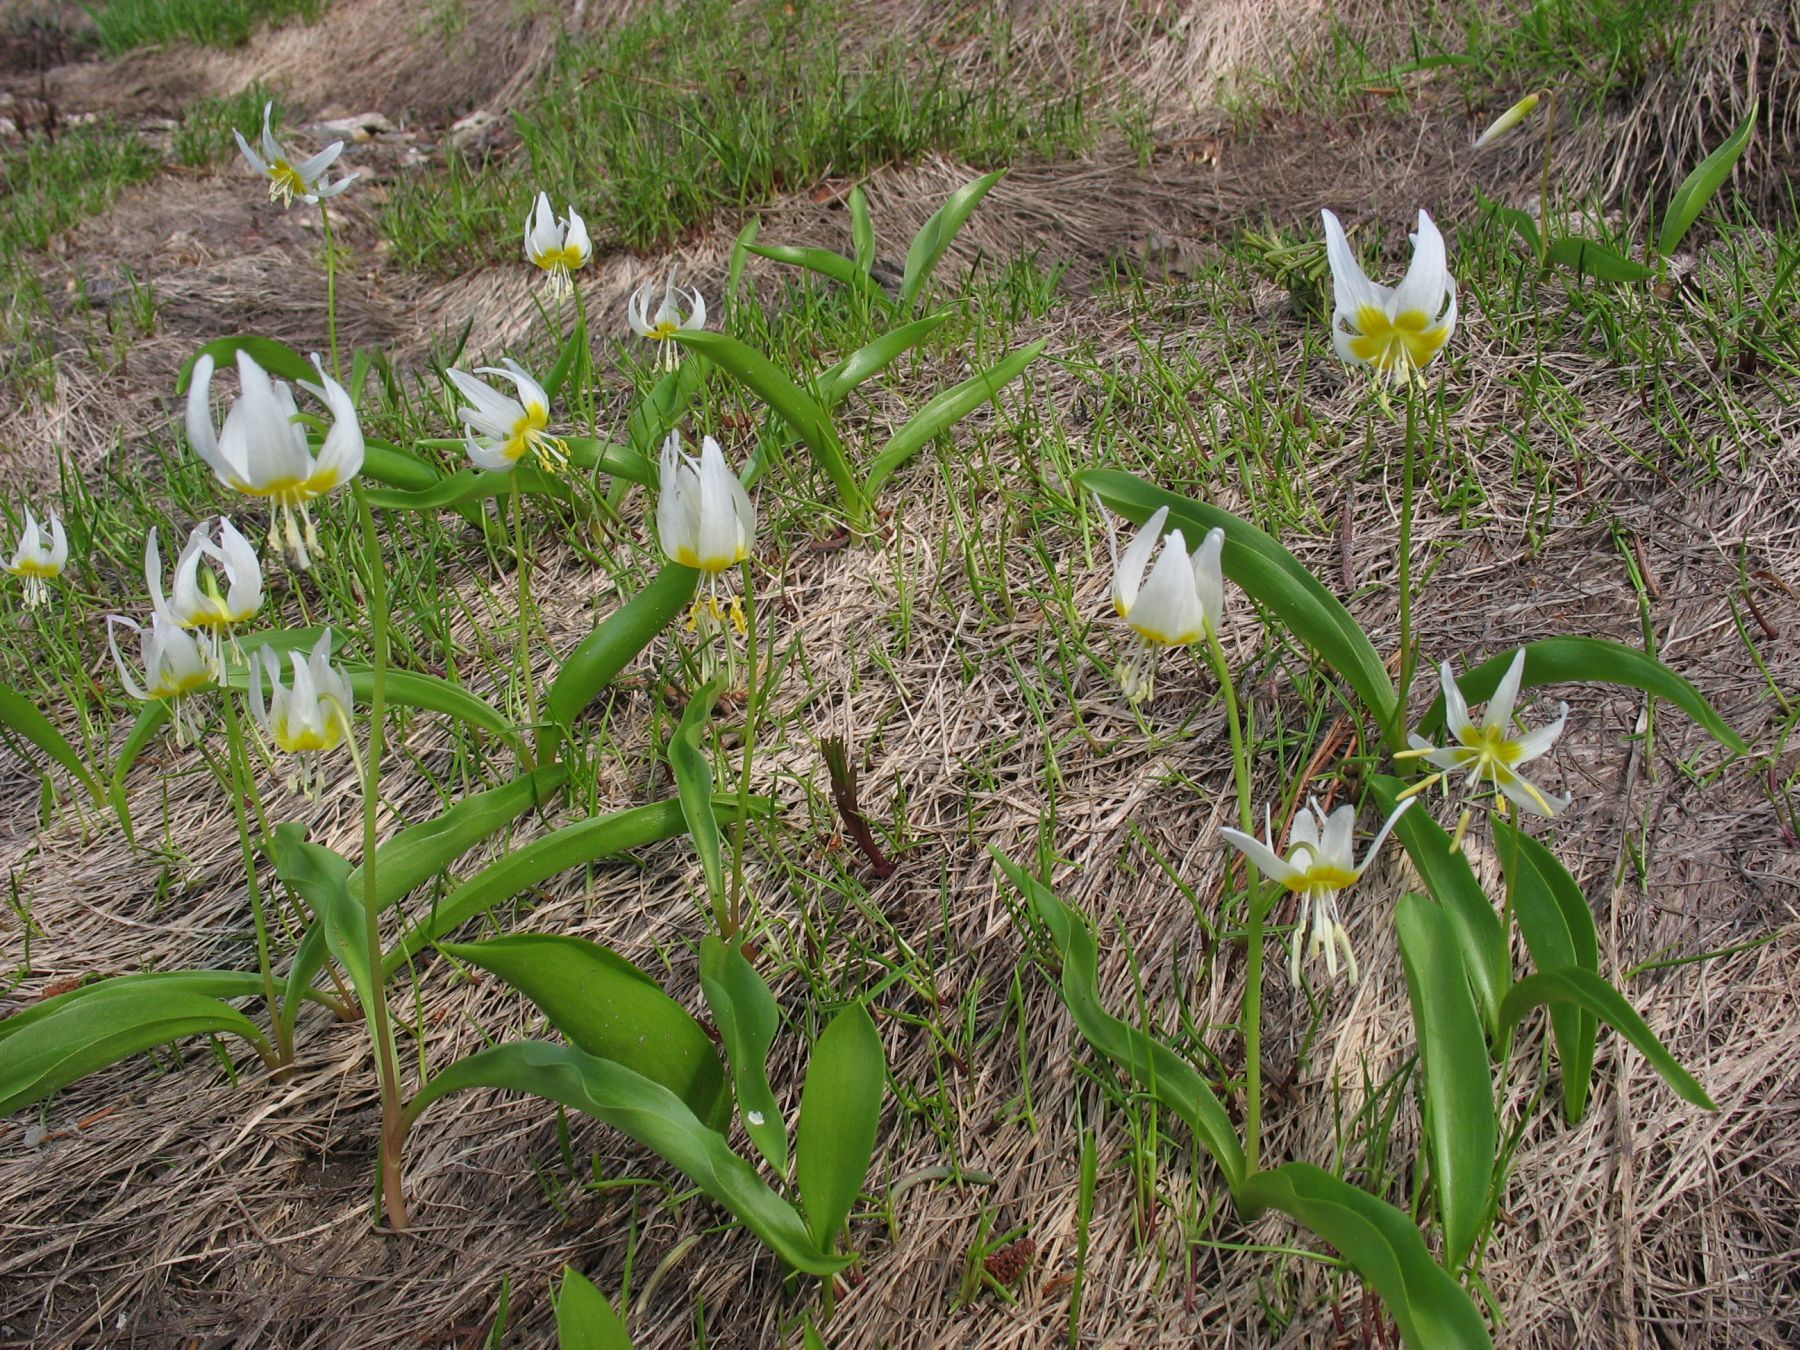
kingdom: Plantae
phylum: Tracheophyta
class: Liliopsida
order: Liliales
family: Liliaceae
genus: Erythronium
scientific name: Erythronium klamathense
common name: Klamath fawn-lily
